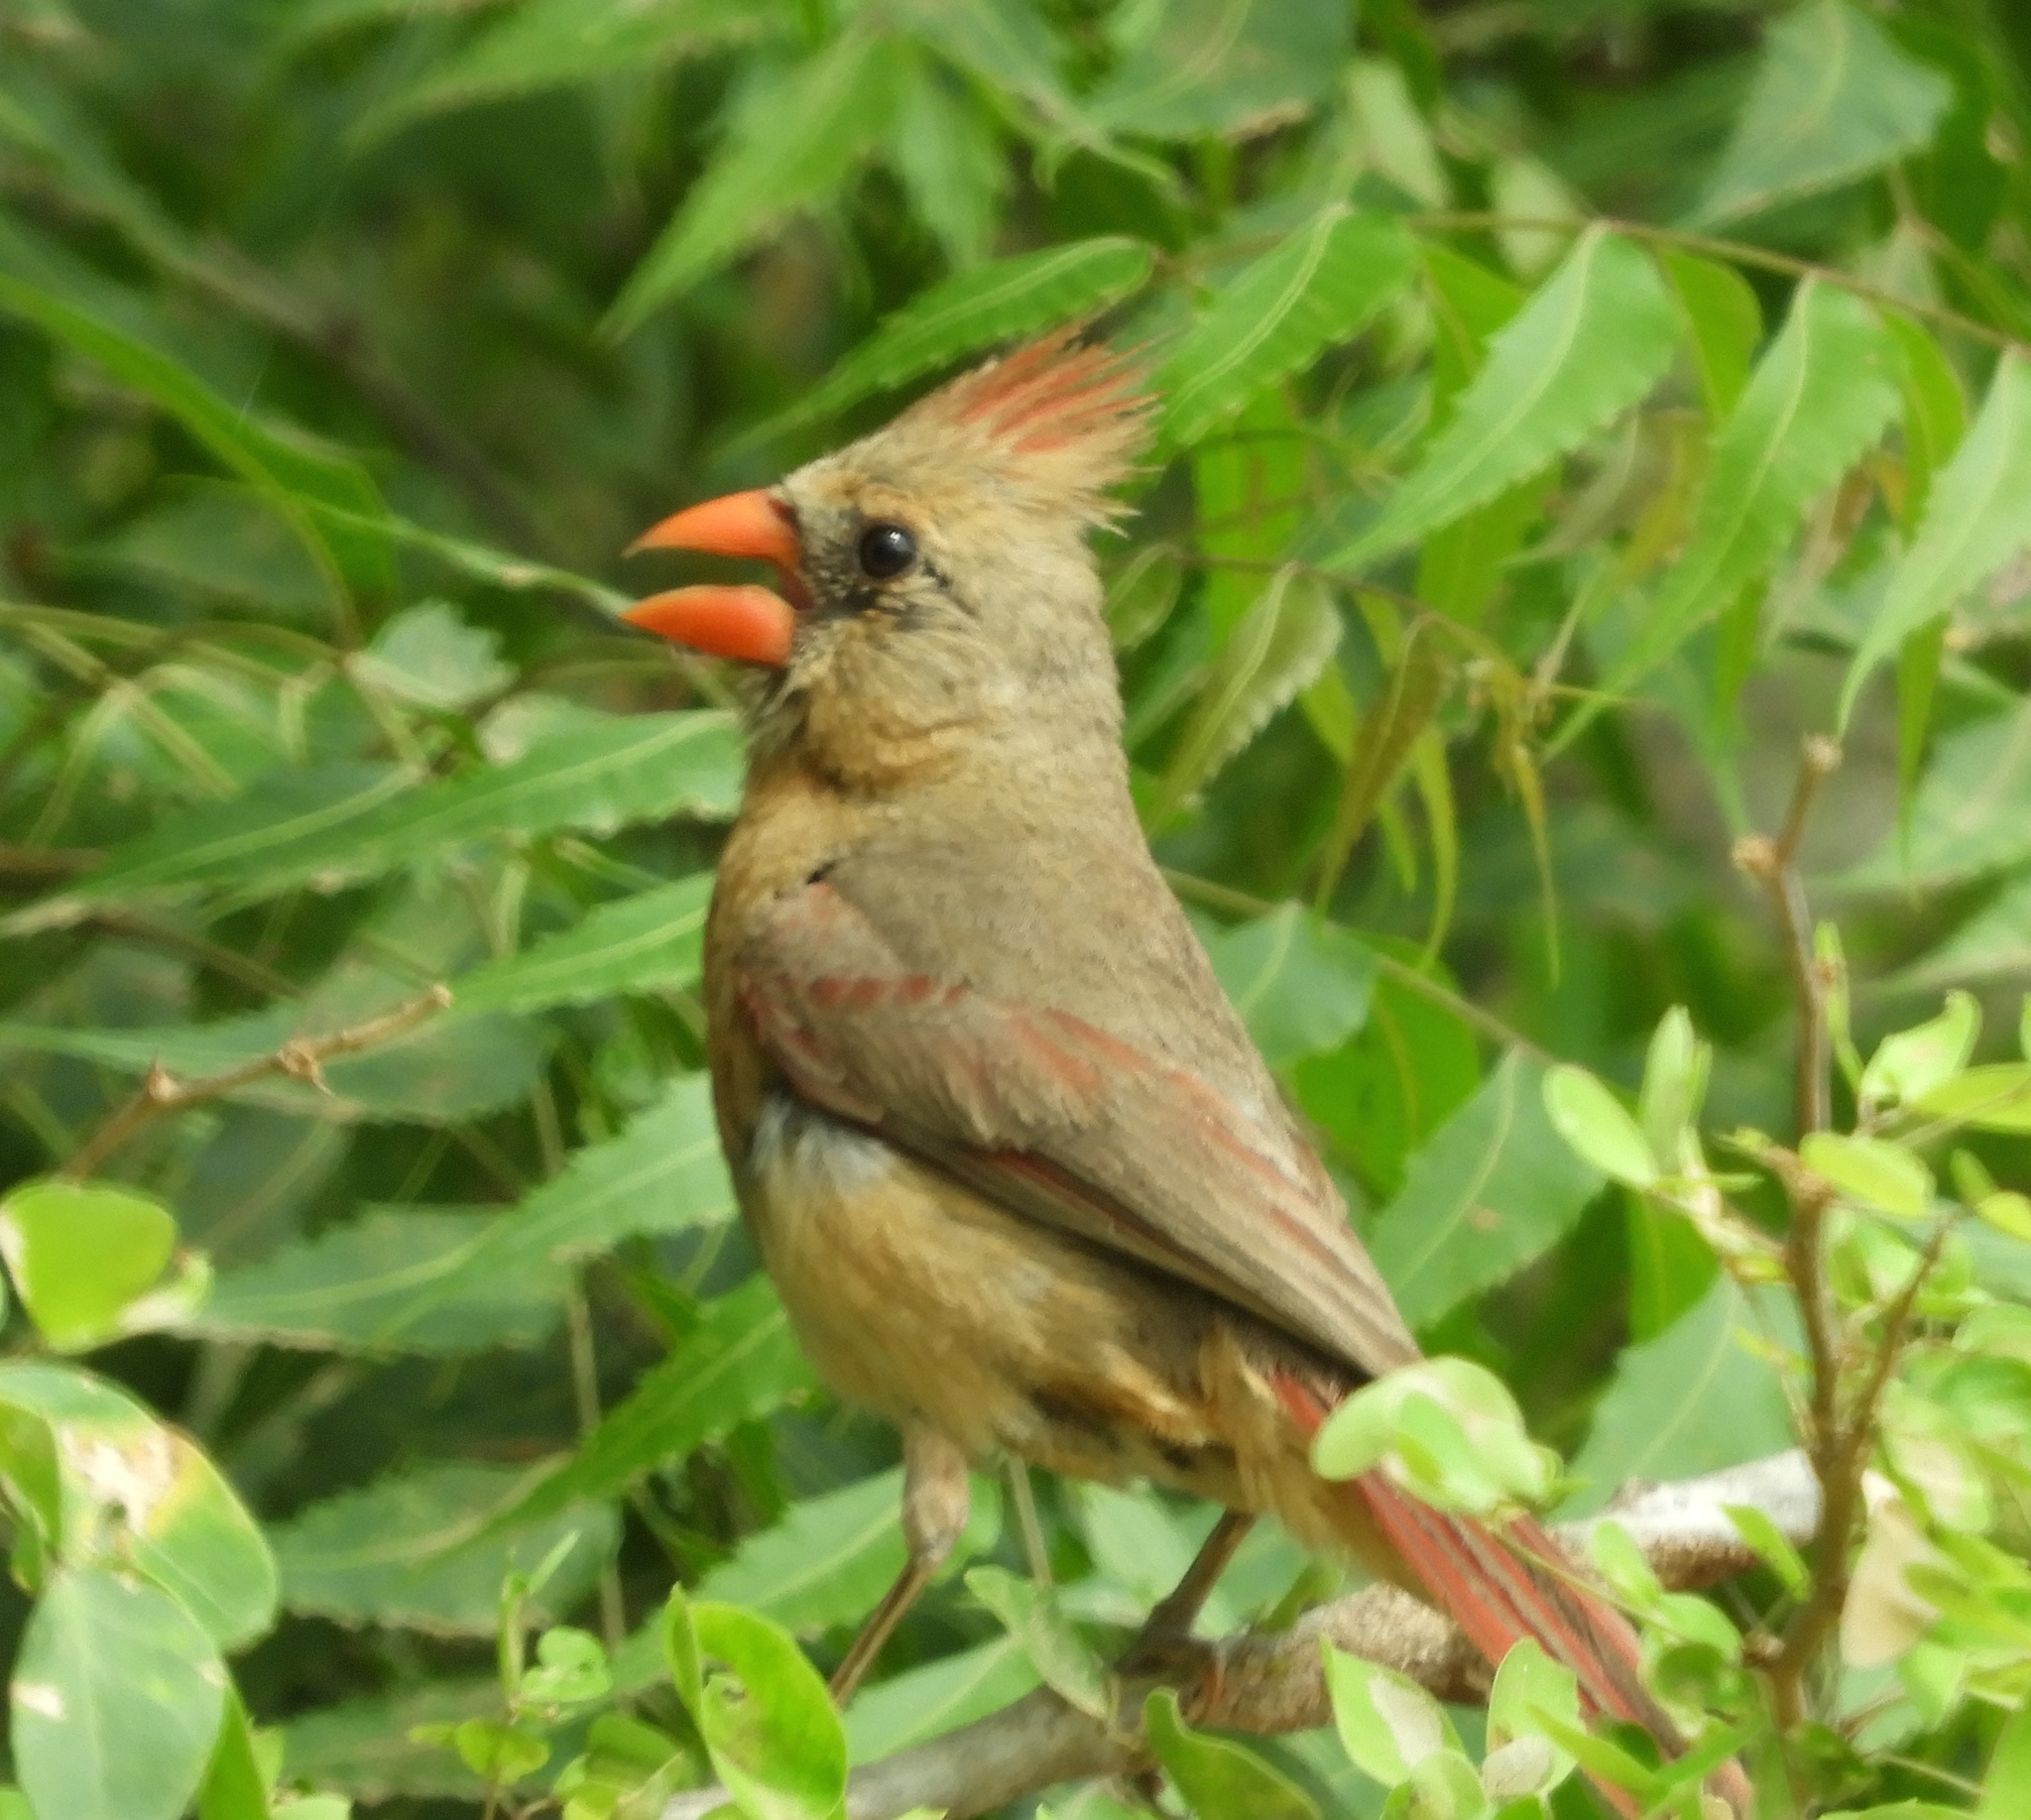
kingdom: Animalia
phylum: Chordata
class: Aves
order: Passeriformes
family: Cardinalidae
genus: Cardinalis
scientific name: Cardinalis cardinalis
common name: Northern cardinal
